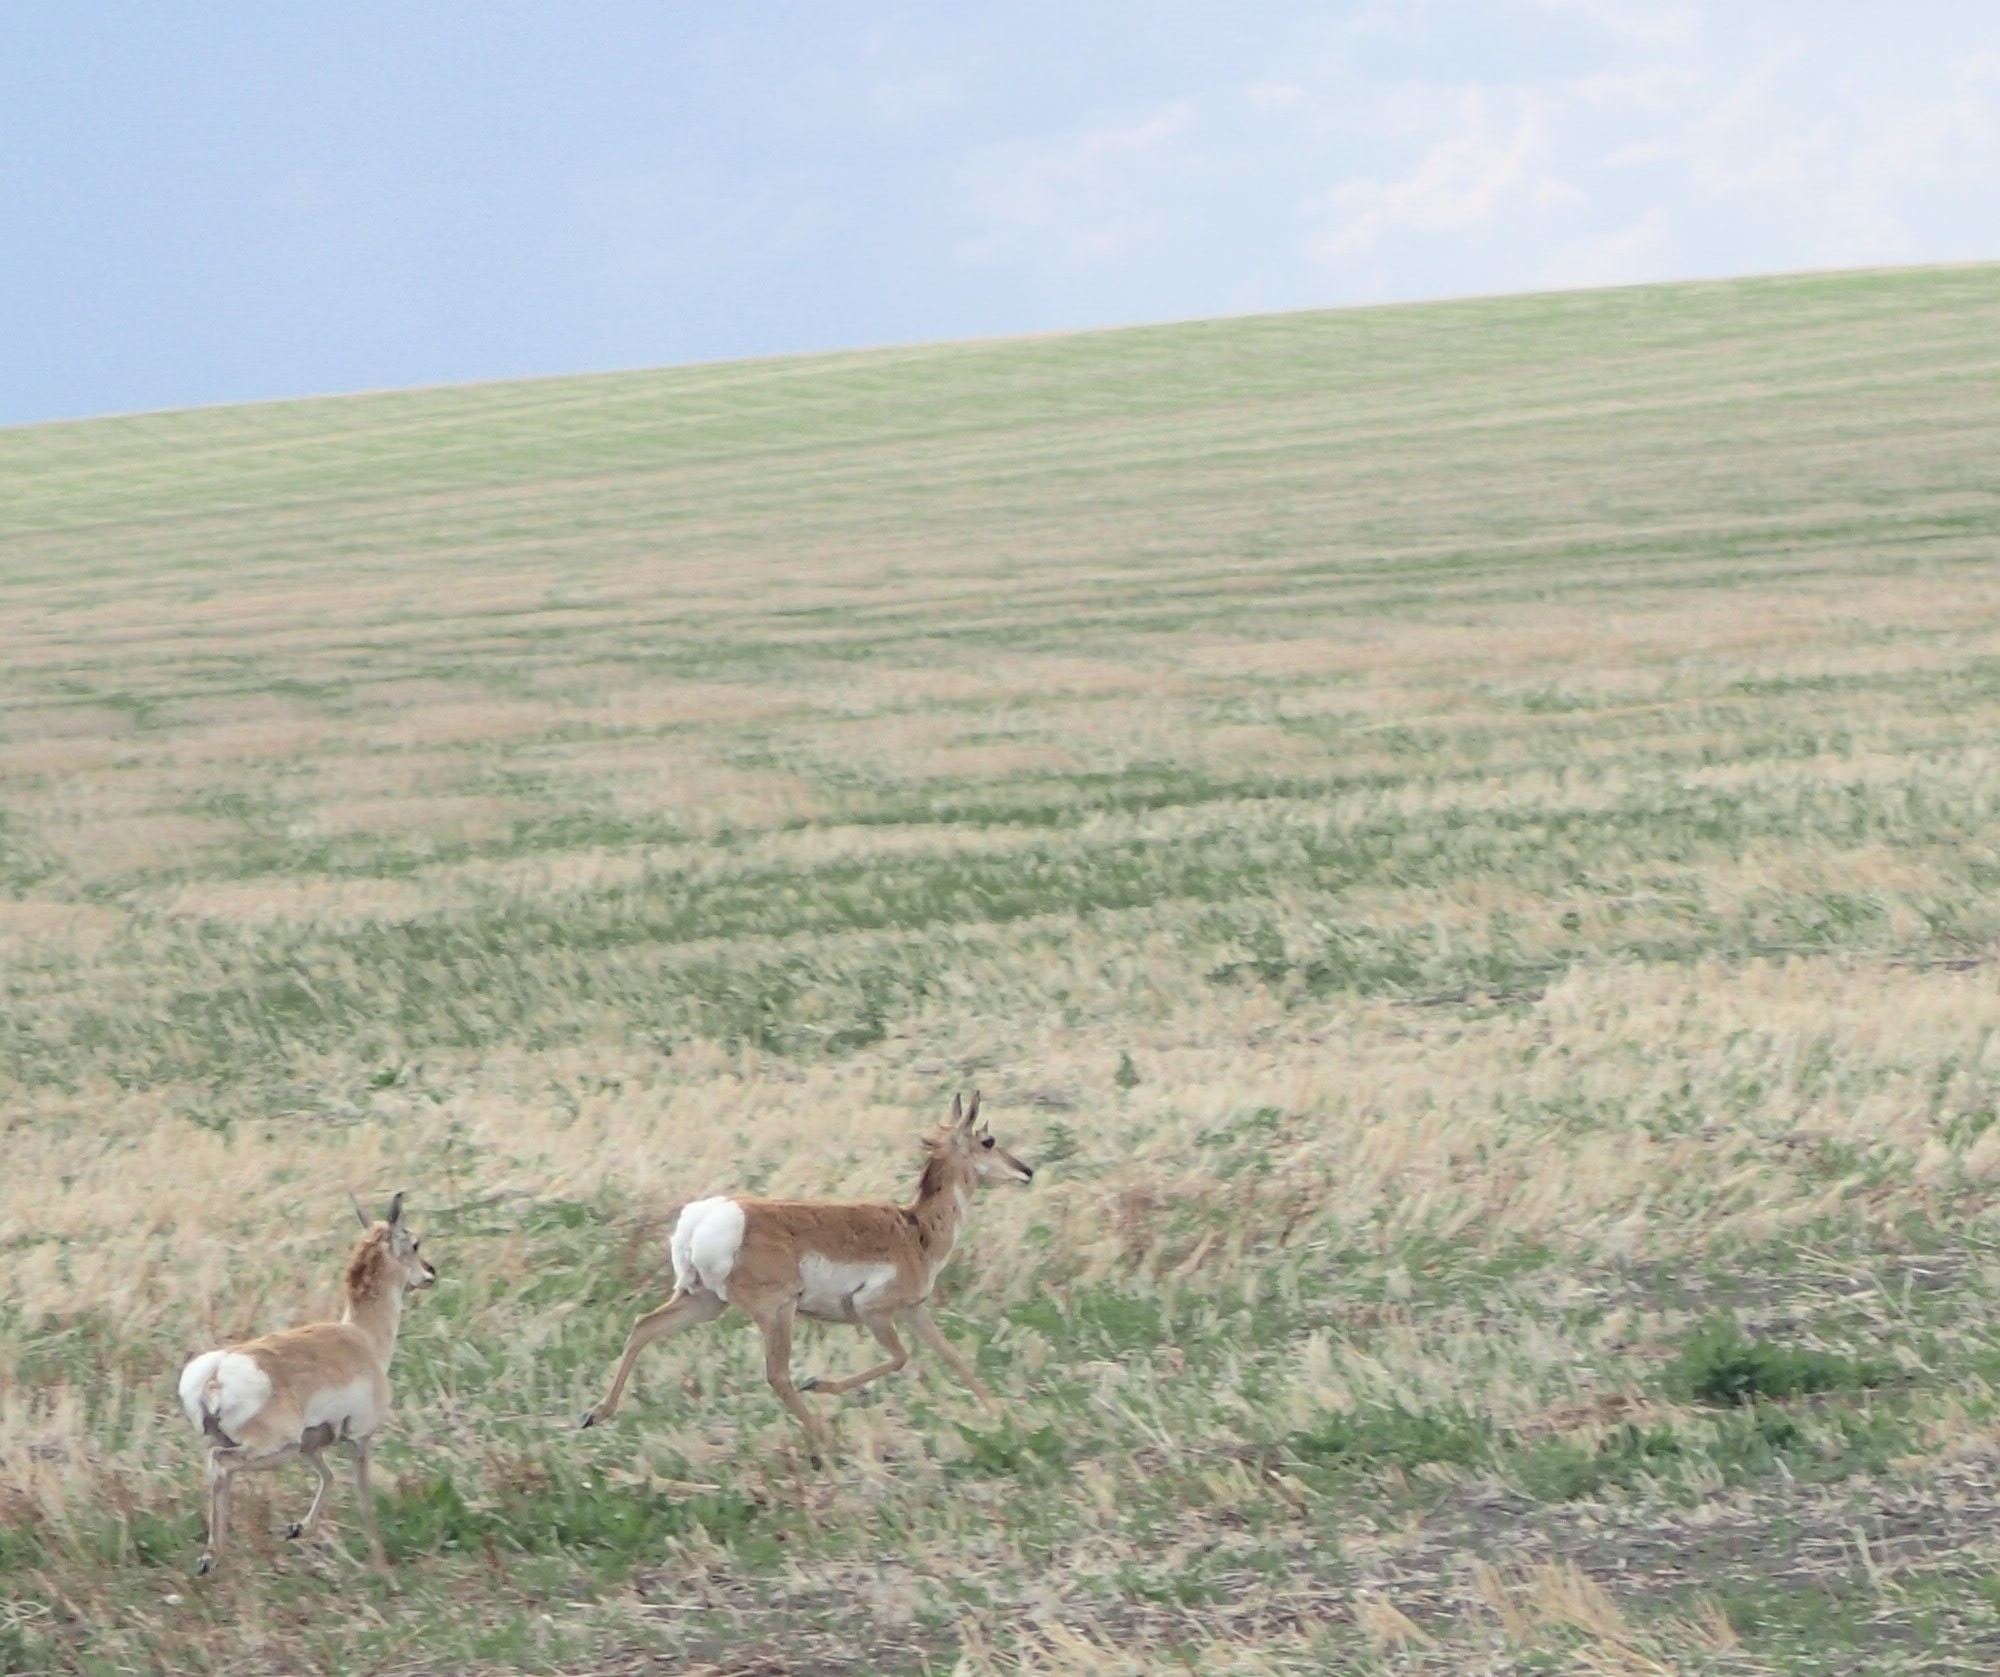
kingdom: Animalia
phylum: Chordata
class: Mammalia
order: Artiodactyla
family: Antilocapridae
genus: Antilocapra
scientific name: Antilocapra americana
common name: Pronghorn
